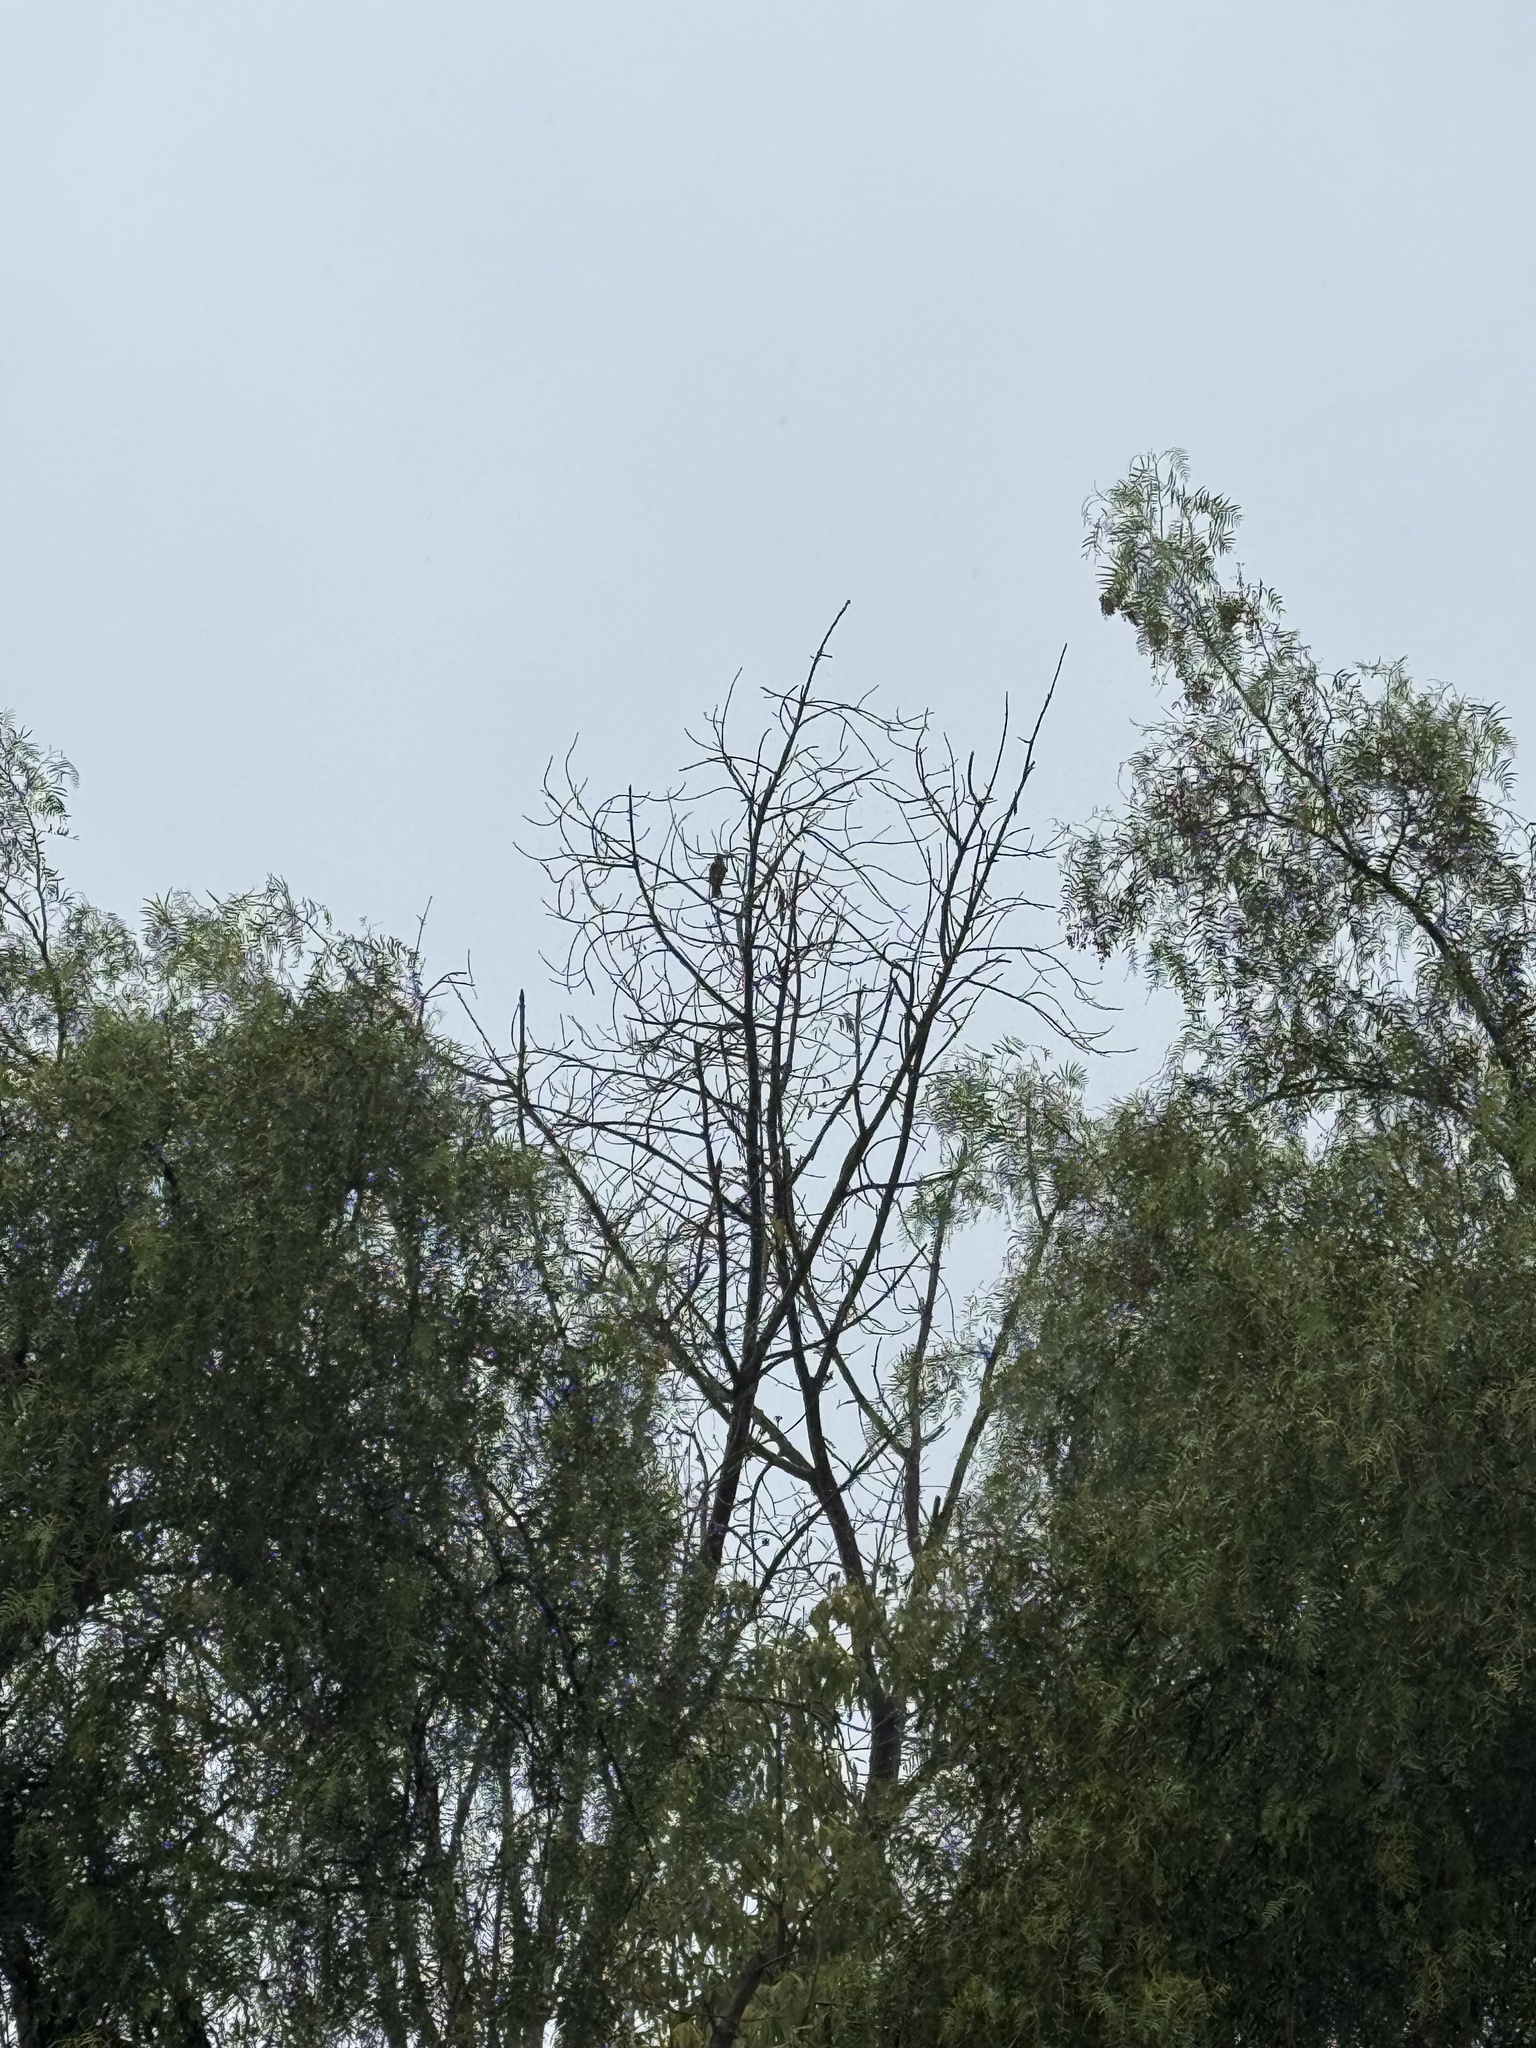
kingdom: Animalia
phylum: Chordata
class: Aves
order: Falconiformes
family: Falconidae
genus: Falco
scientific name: Falco columbarius
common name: Merlin
